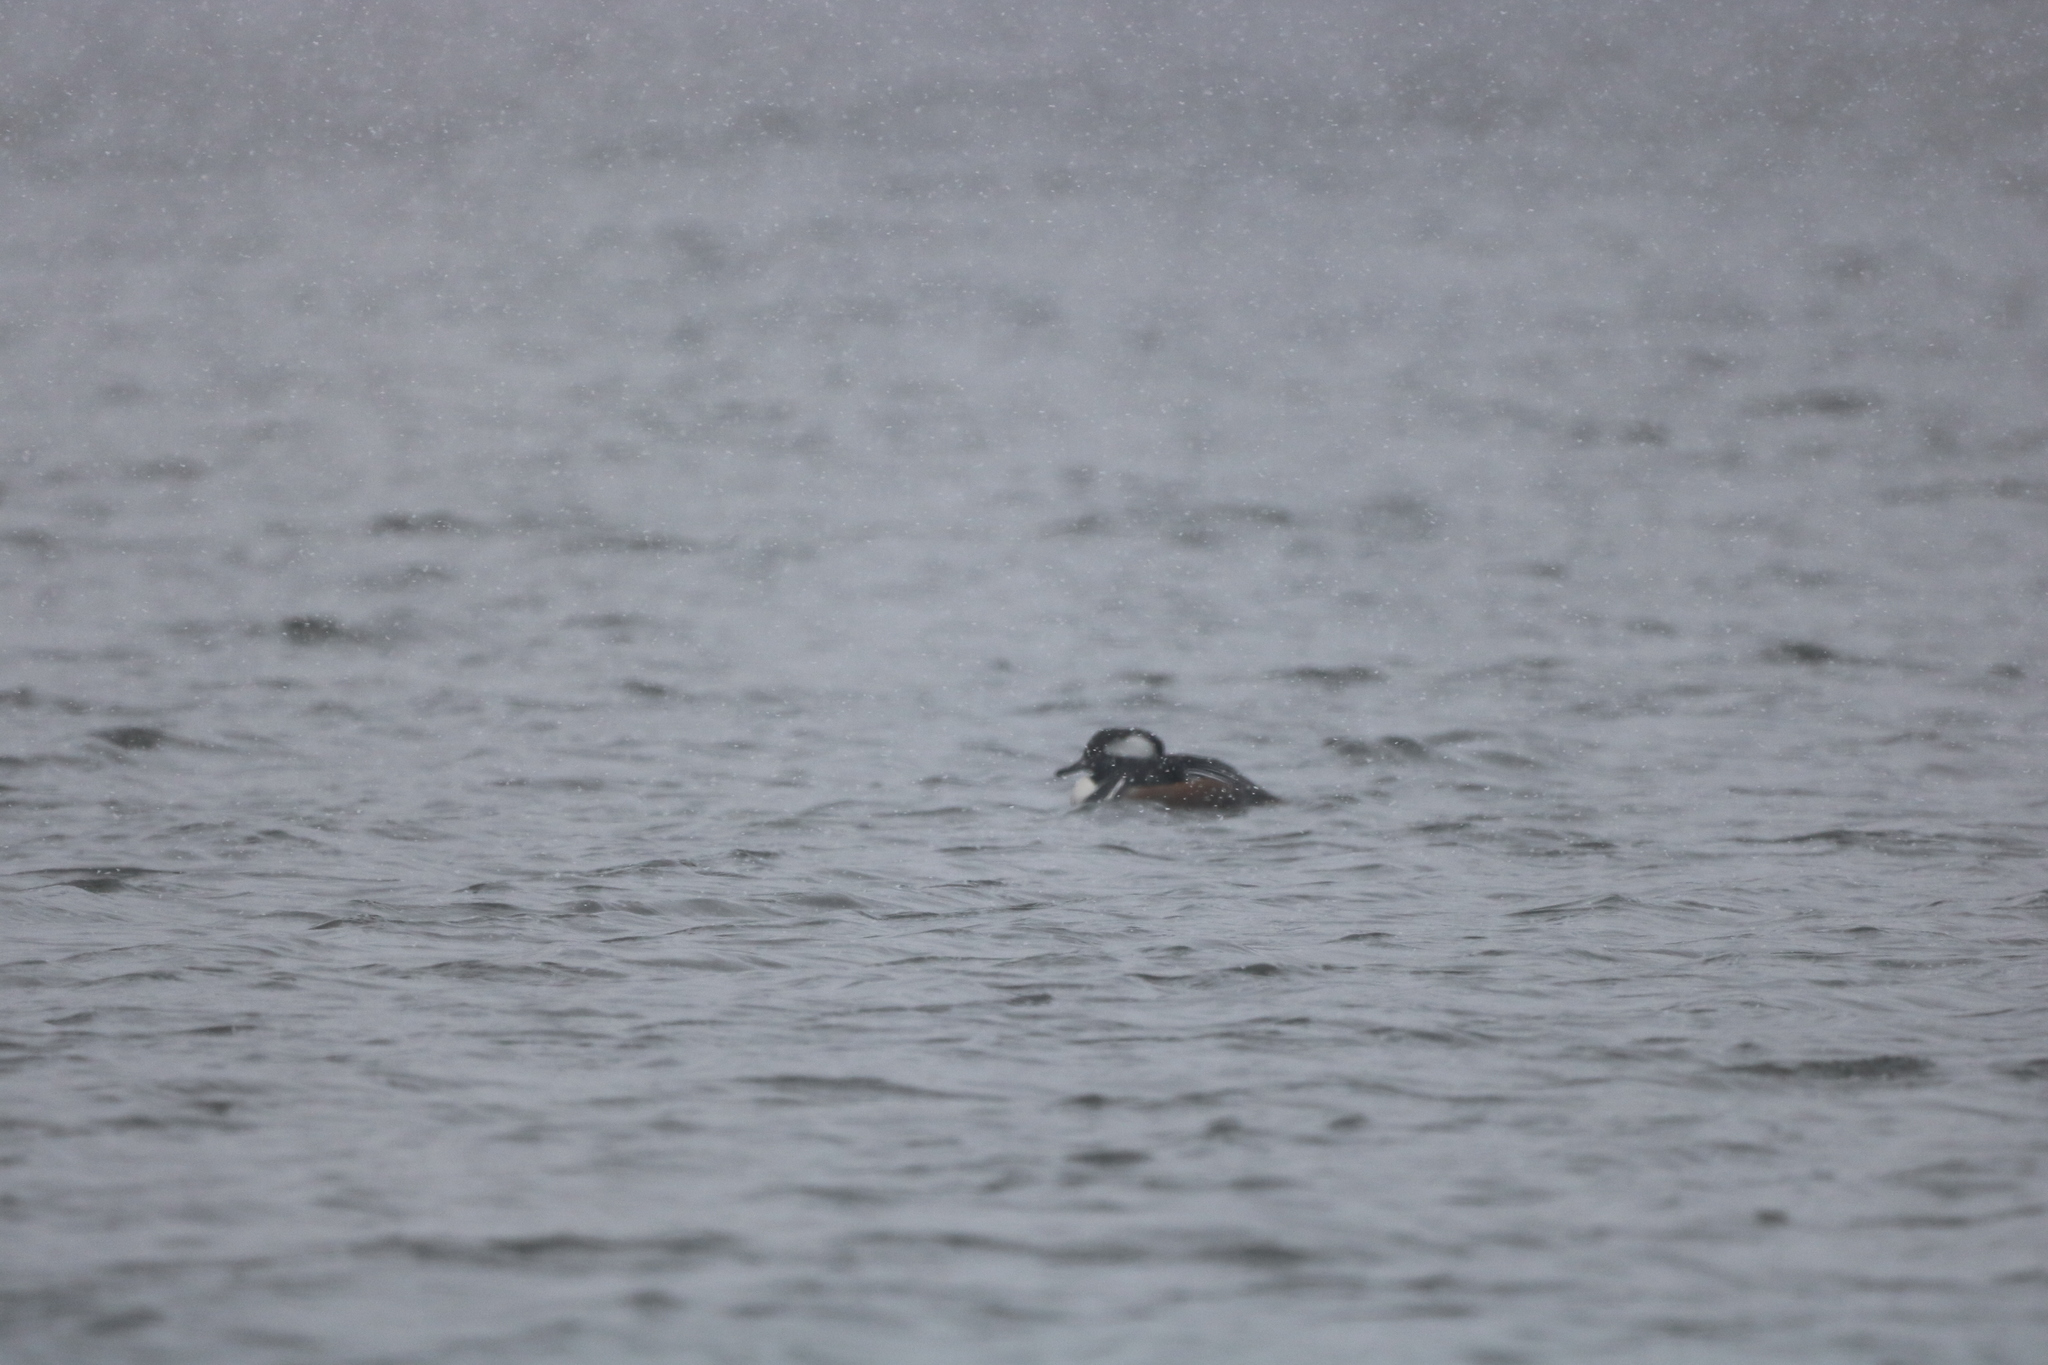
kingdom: Animalia
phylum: Chordata
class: Aves
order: Anseriformes
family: Anatidae
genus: Lophodytes
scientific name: Lophodytes cucullatus
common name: Hooded merganser
